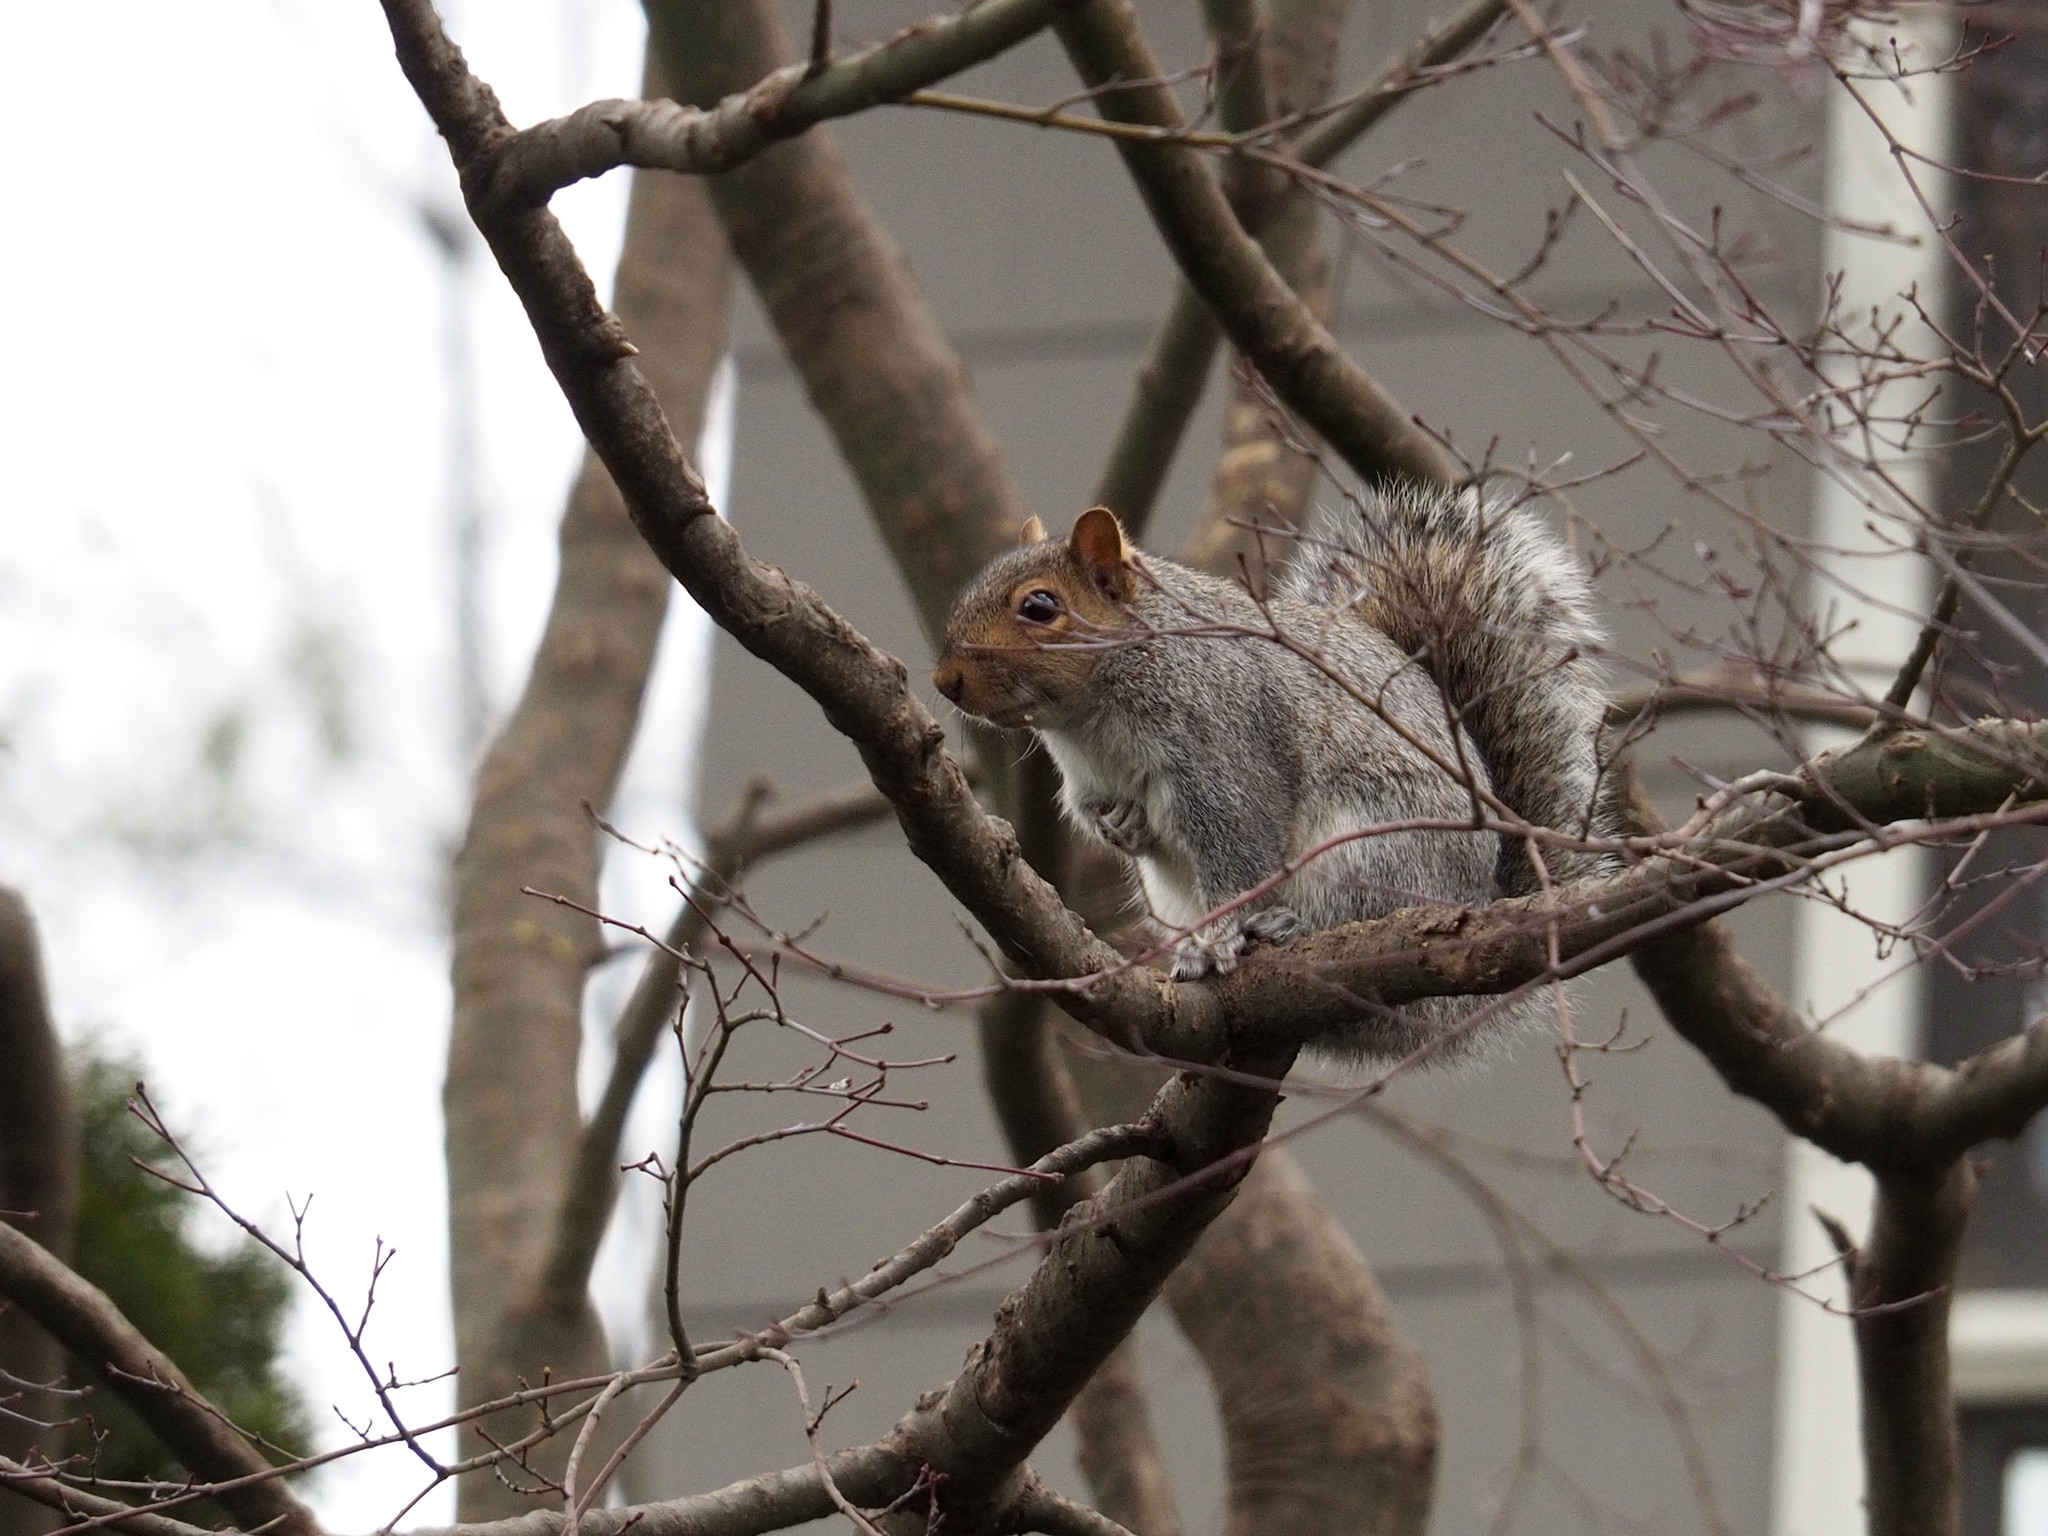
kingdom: Animalia
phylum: Chordata
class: Mammalia
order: Rodentia
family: Sciuridae
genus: Sciurus
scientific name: Sciurus carolinensis
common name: Eastern gray squirrel
